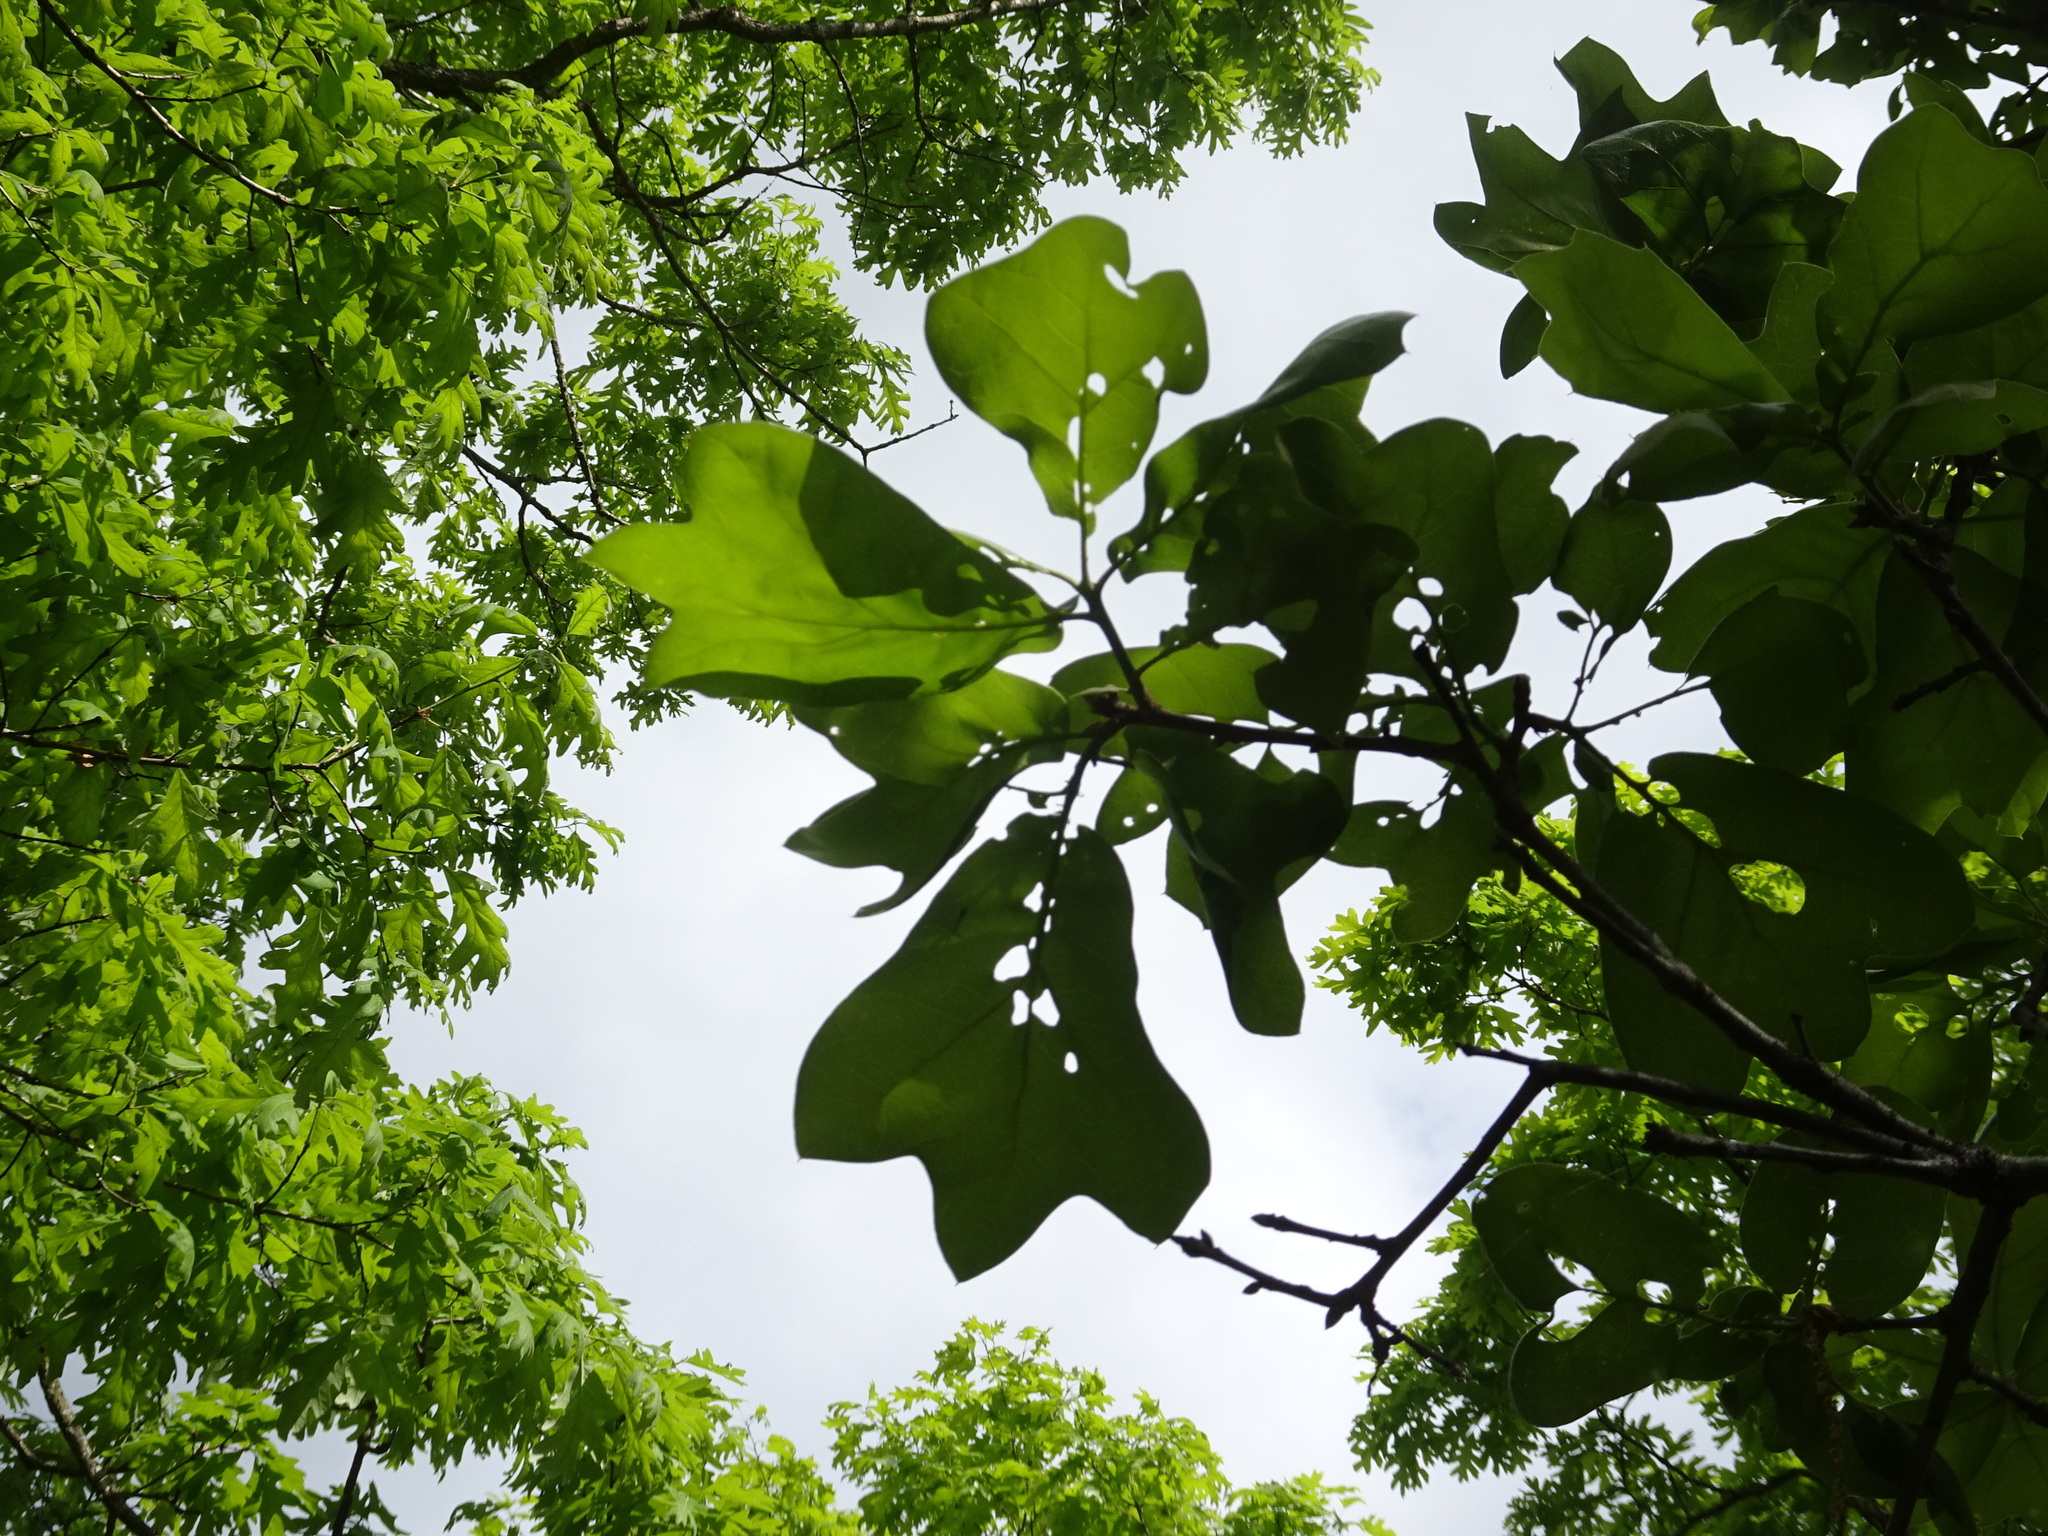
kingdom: Plantae
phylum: Tracheophyta
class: Magnoliopsida
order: Fagales
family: Fagaceae
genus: Quercus
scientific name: Quercus marilandica
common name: Blackjack oak
